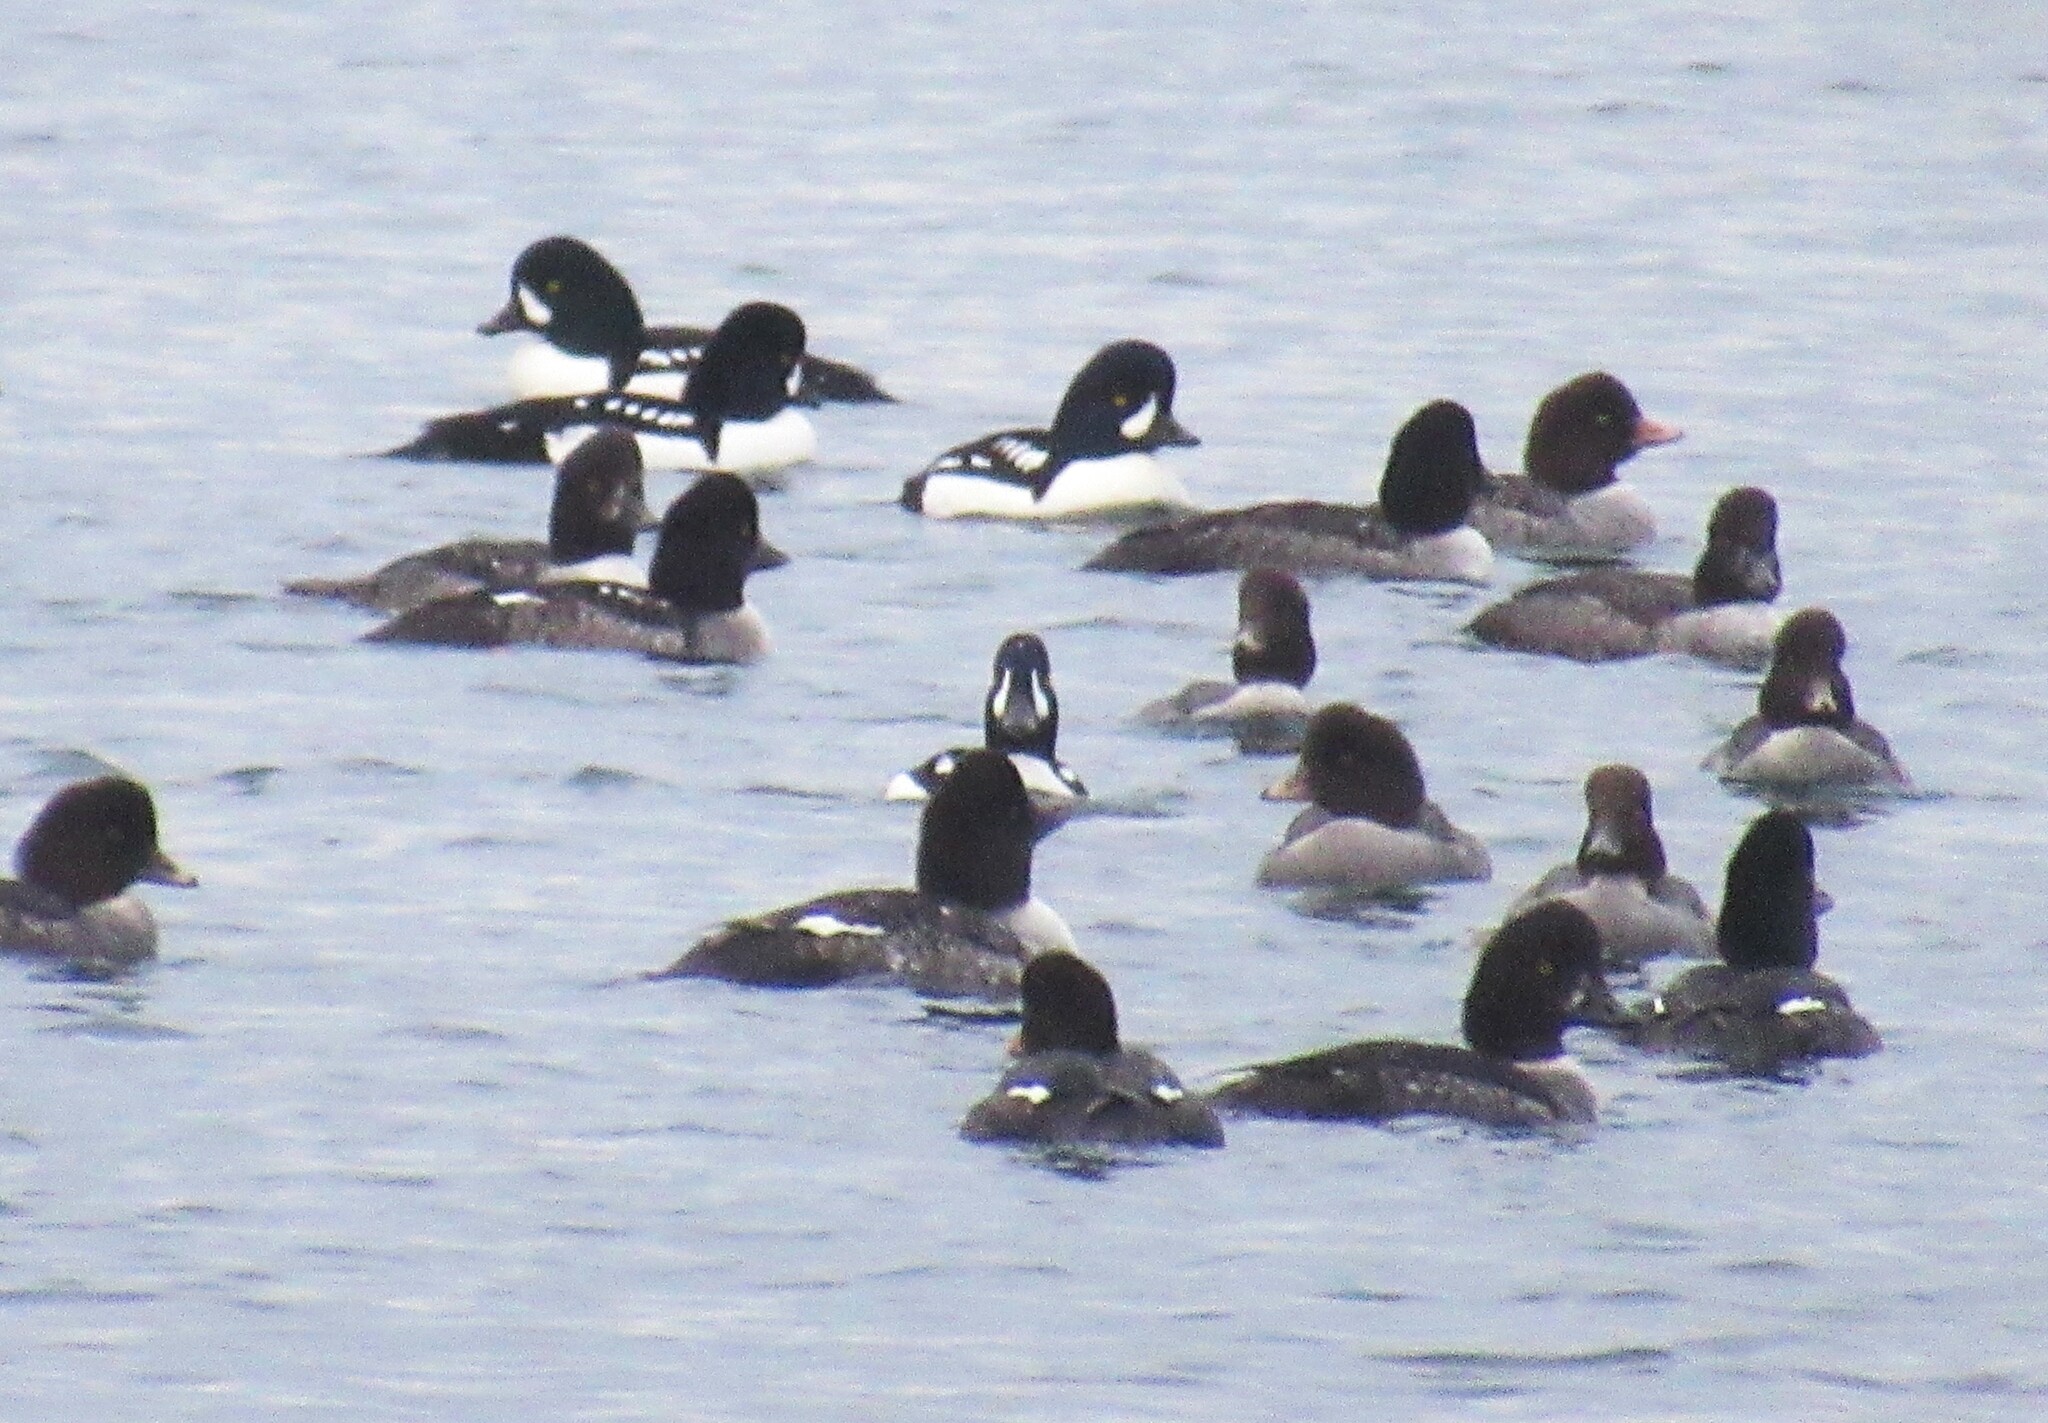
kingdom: Animalia
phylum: Chordata
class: Aves
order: Anseriformes
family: Anatidae
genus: Bucephala
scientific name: Bucephala islandica
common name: Barrow's goldeneye
